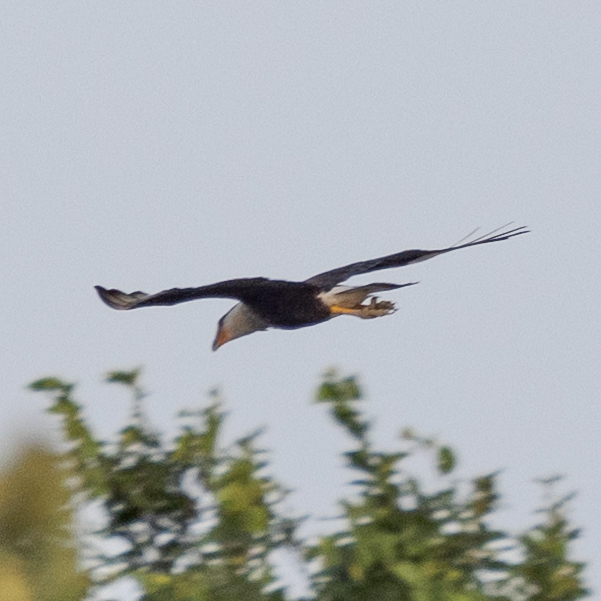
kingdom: Animalia
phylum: Chordata
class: Aves
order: Falconiformes
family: Falconidae
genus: Caracara
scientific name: Caracara plancus
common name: Southern caracara
